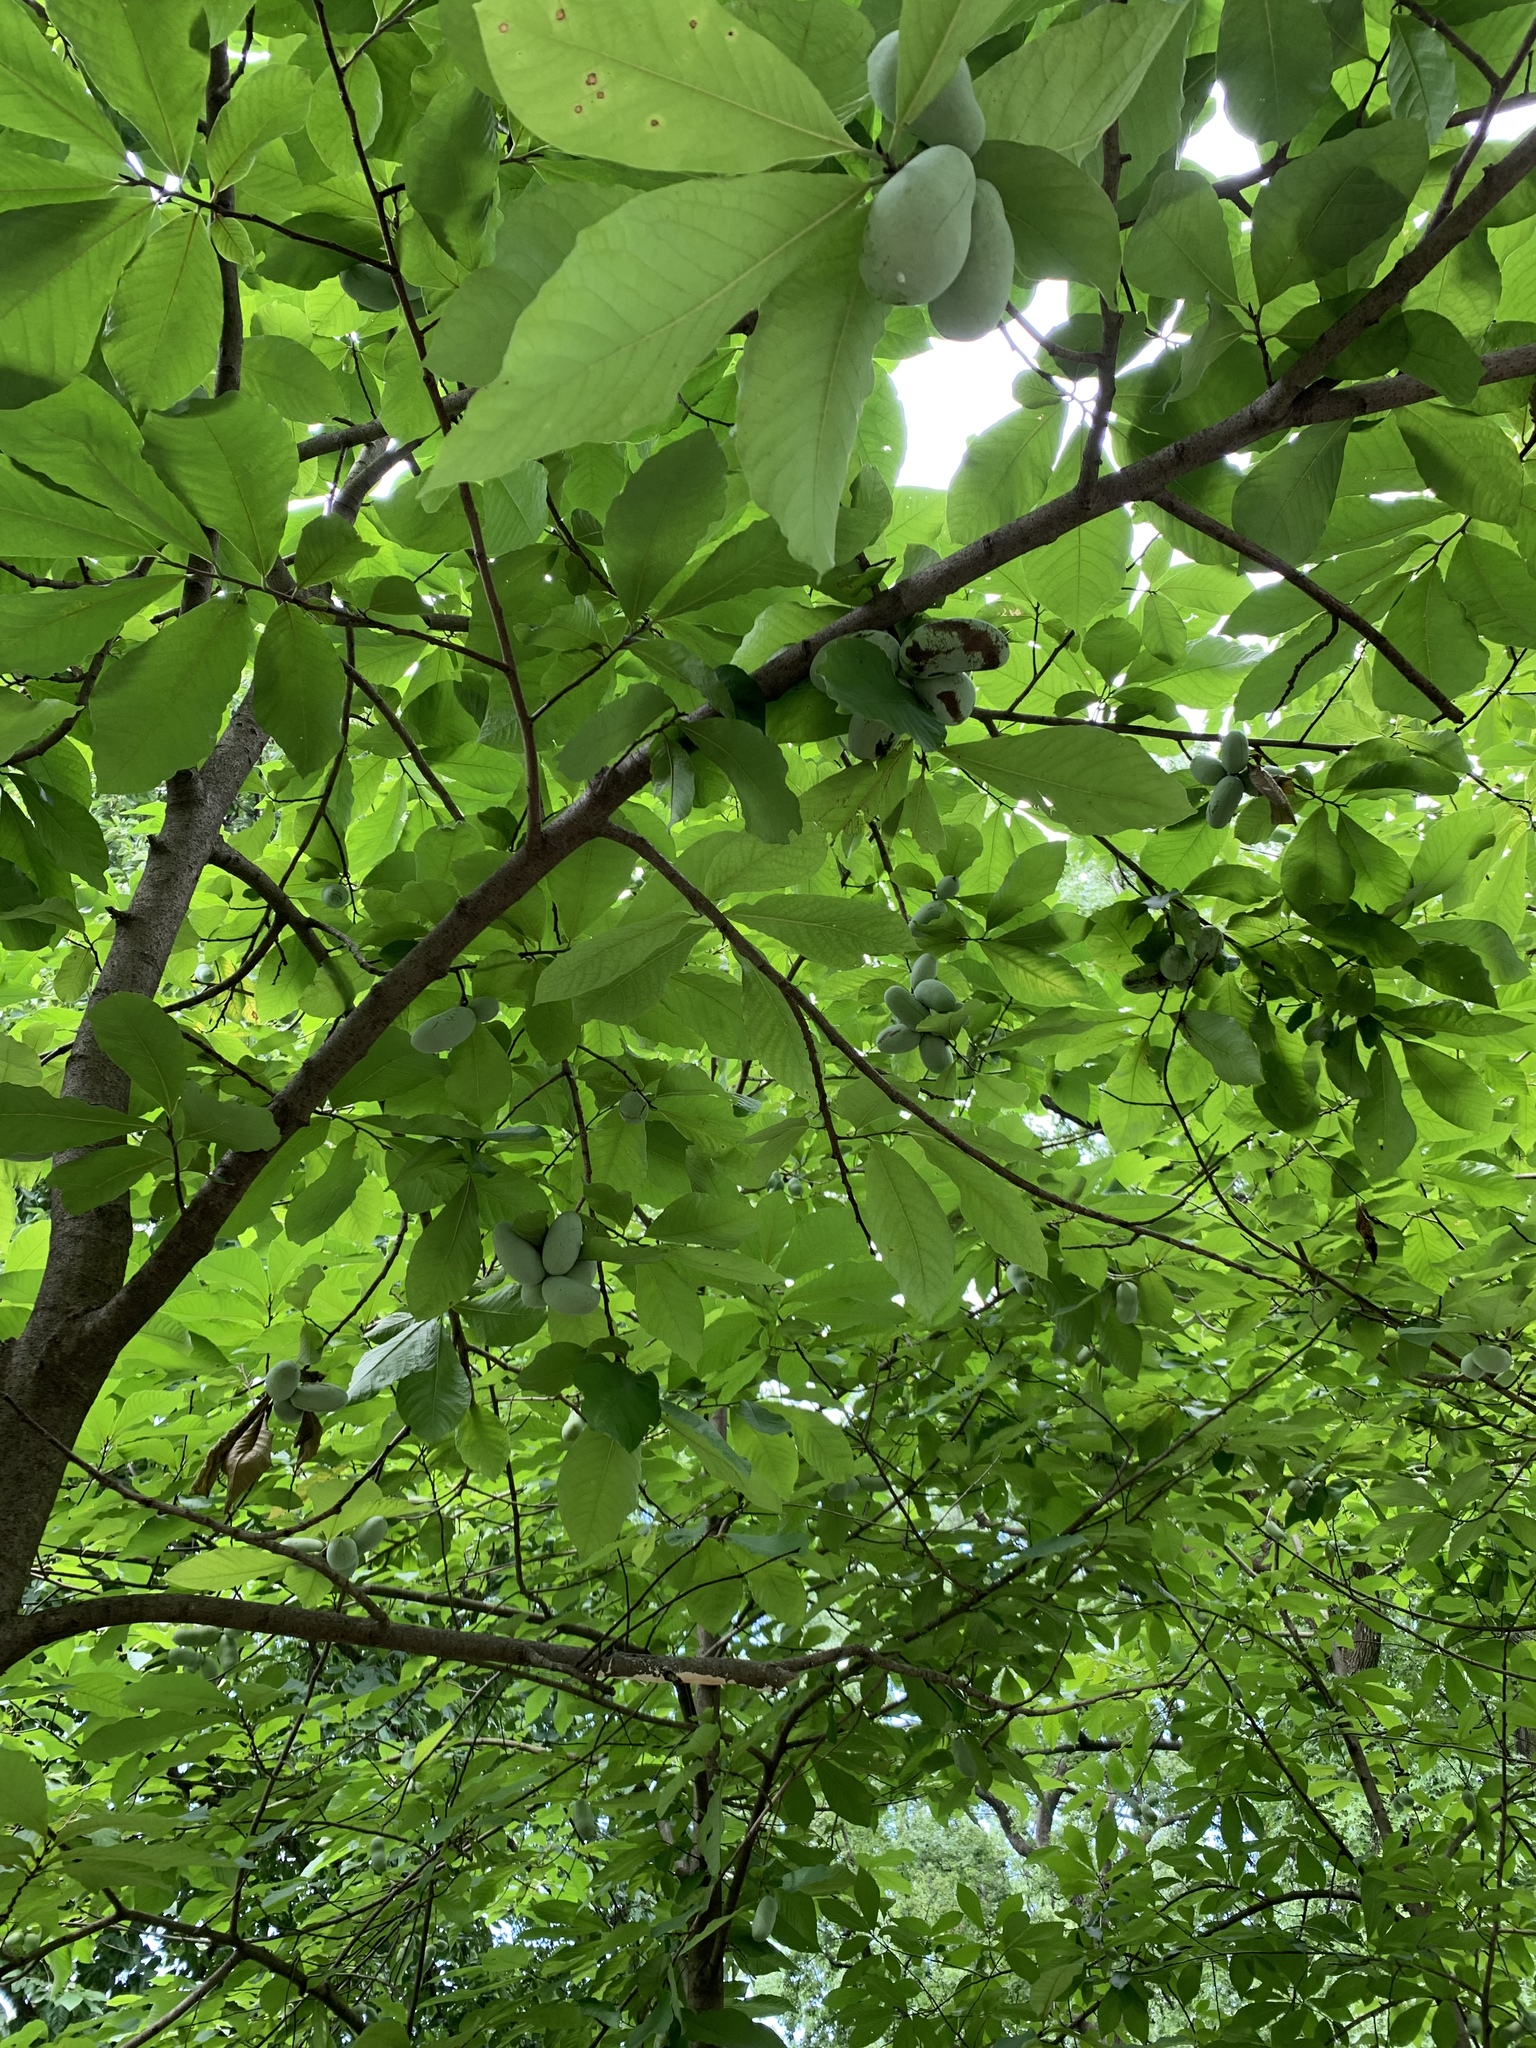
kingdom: Plantae
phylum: Tracheophyta
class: Magnoliopsida
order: Magnoliales
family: Annonaceae
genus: Asimina
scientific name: Asimina triloba
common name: Dog-banana
